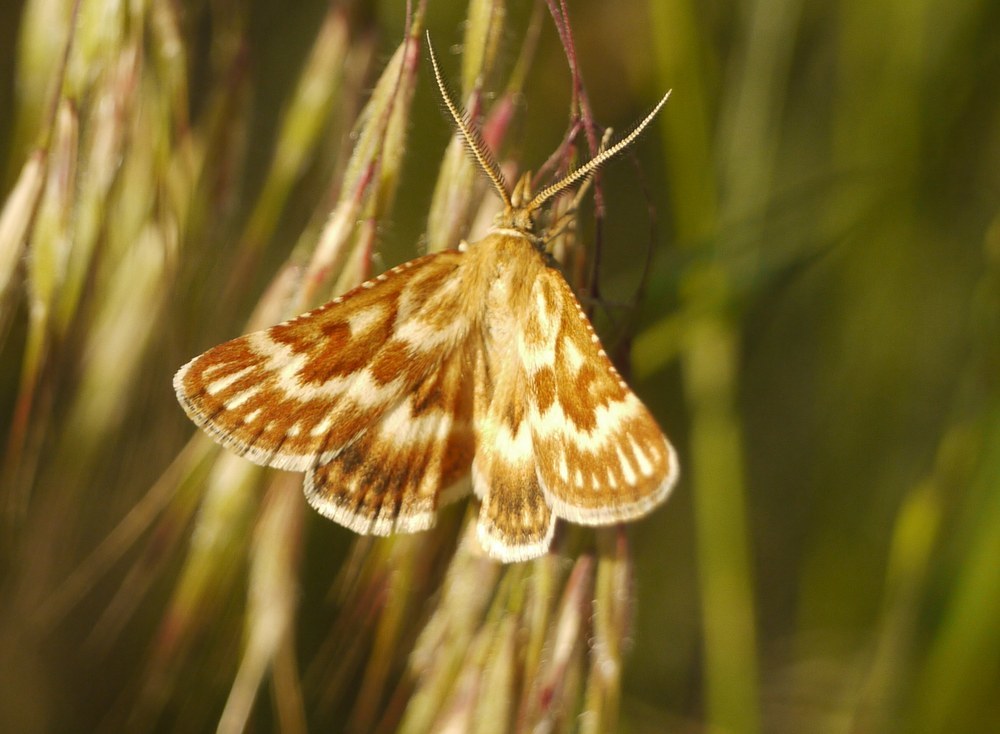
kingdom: Animalia
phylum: Arthropoda
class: Insecta
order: Lepidoptera
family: Pyralidae
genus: Synaphe
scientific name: Synaphe moldavica
